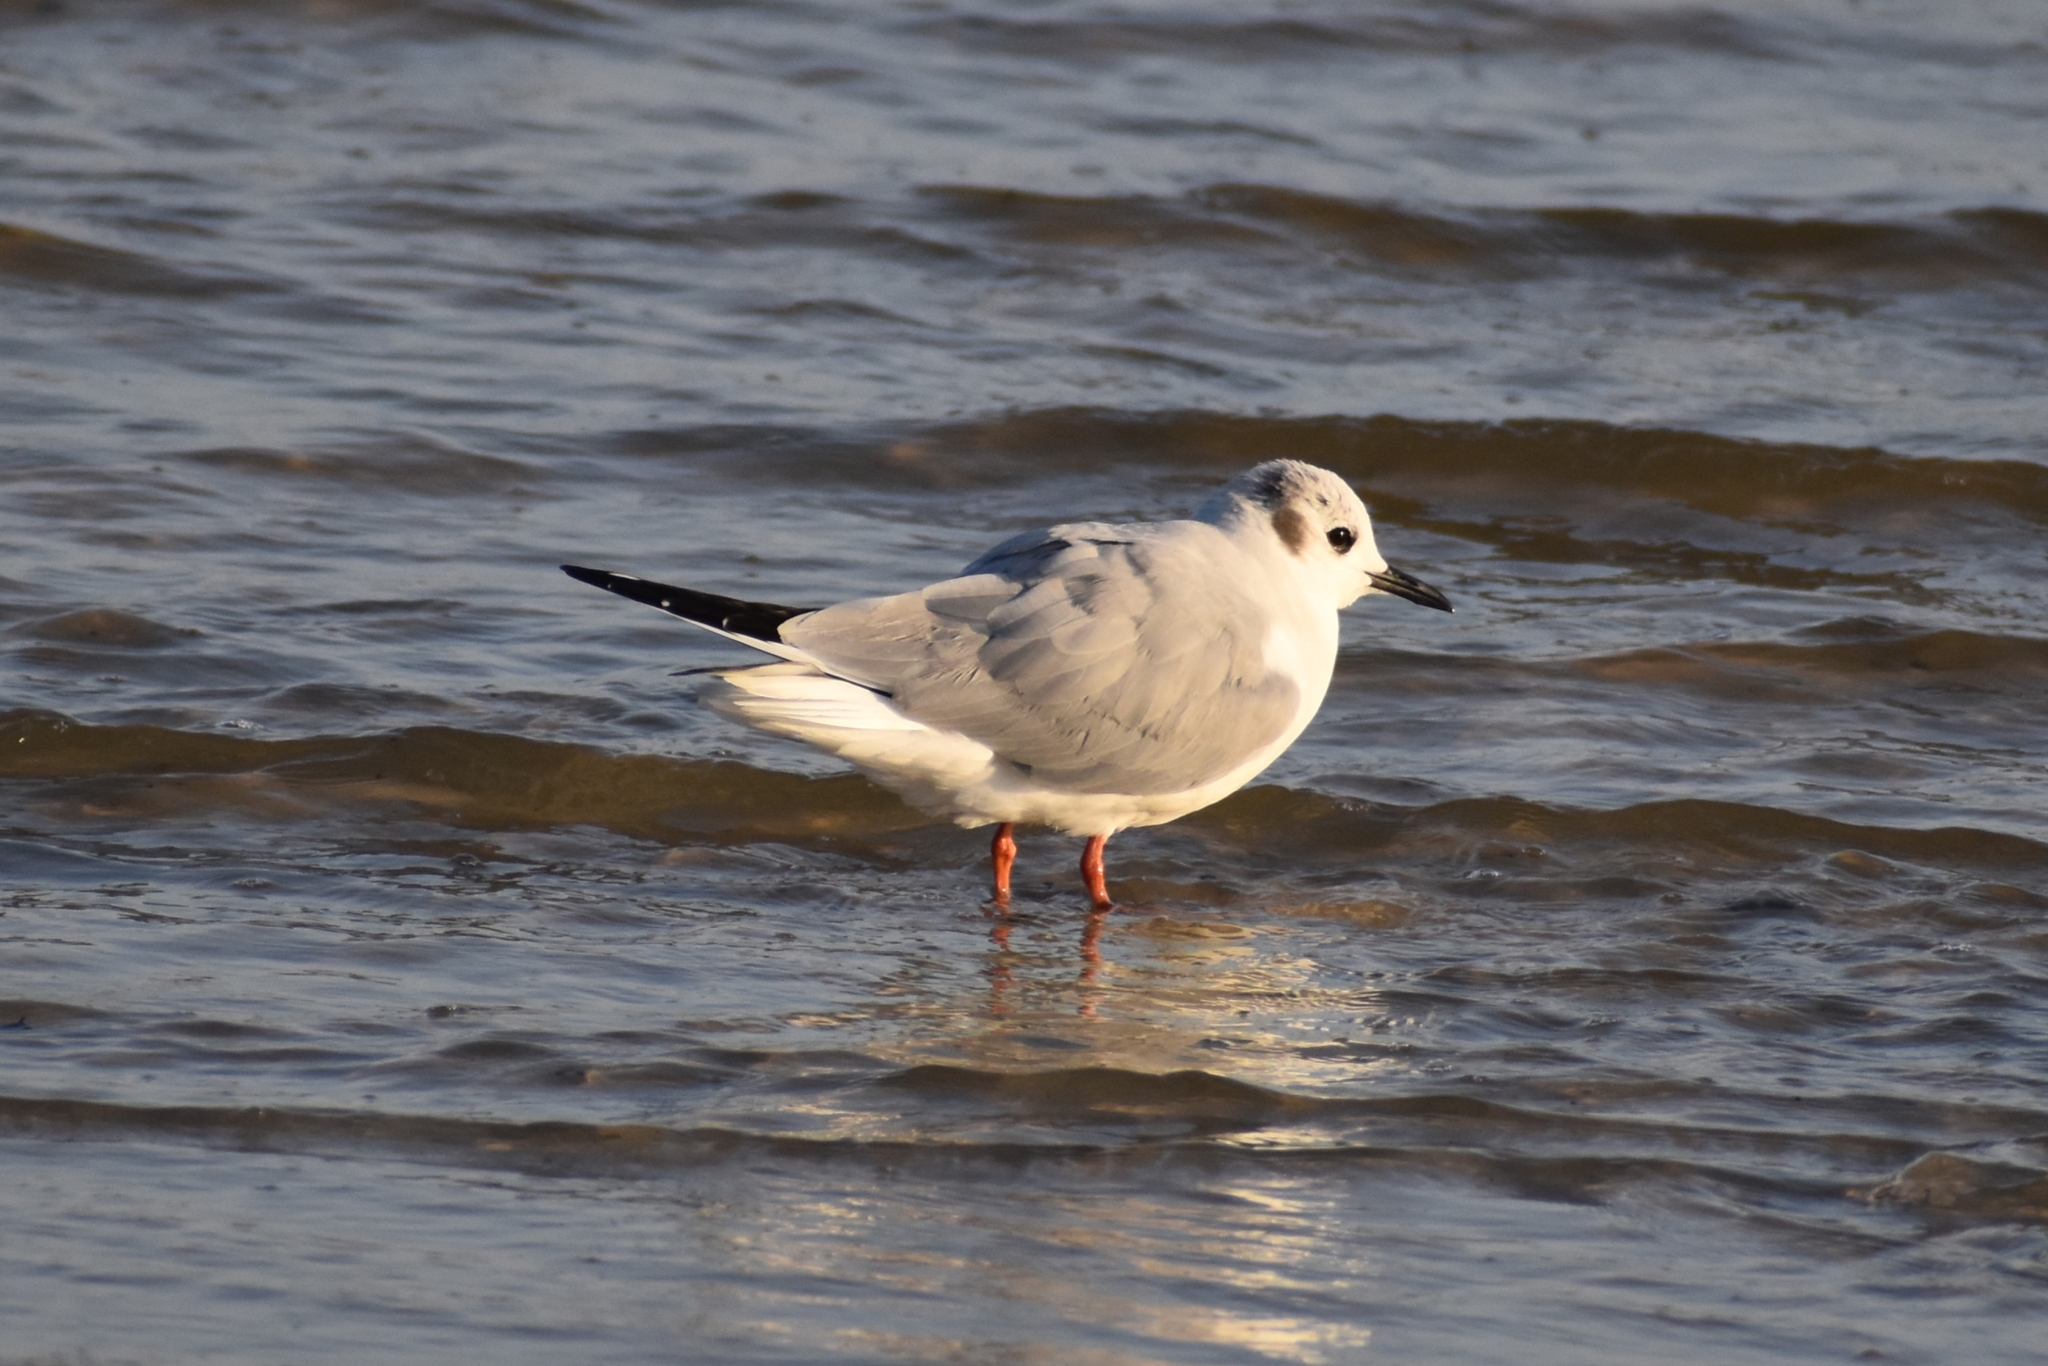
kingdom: Animalia
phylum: Chordata
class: Aves
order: Charadriiformes
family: Laridae
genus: Chroicocephalus
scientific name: Chroicocephalus philadelphia
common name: Bonaparte's gull
